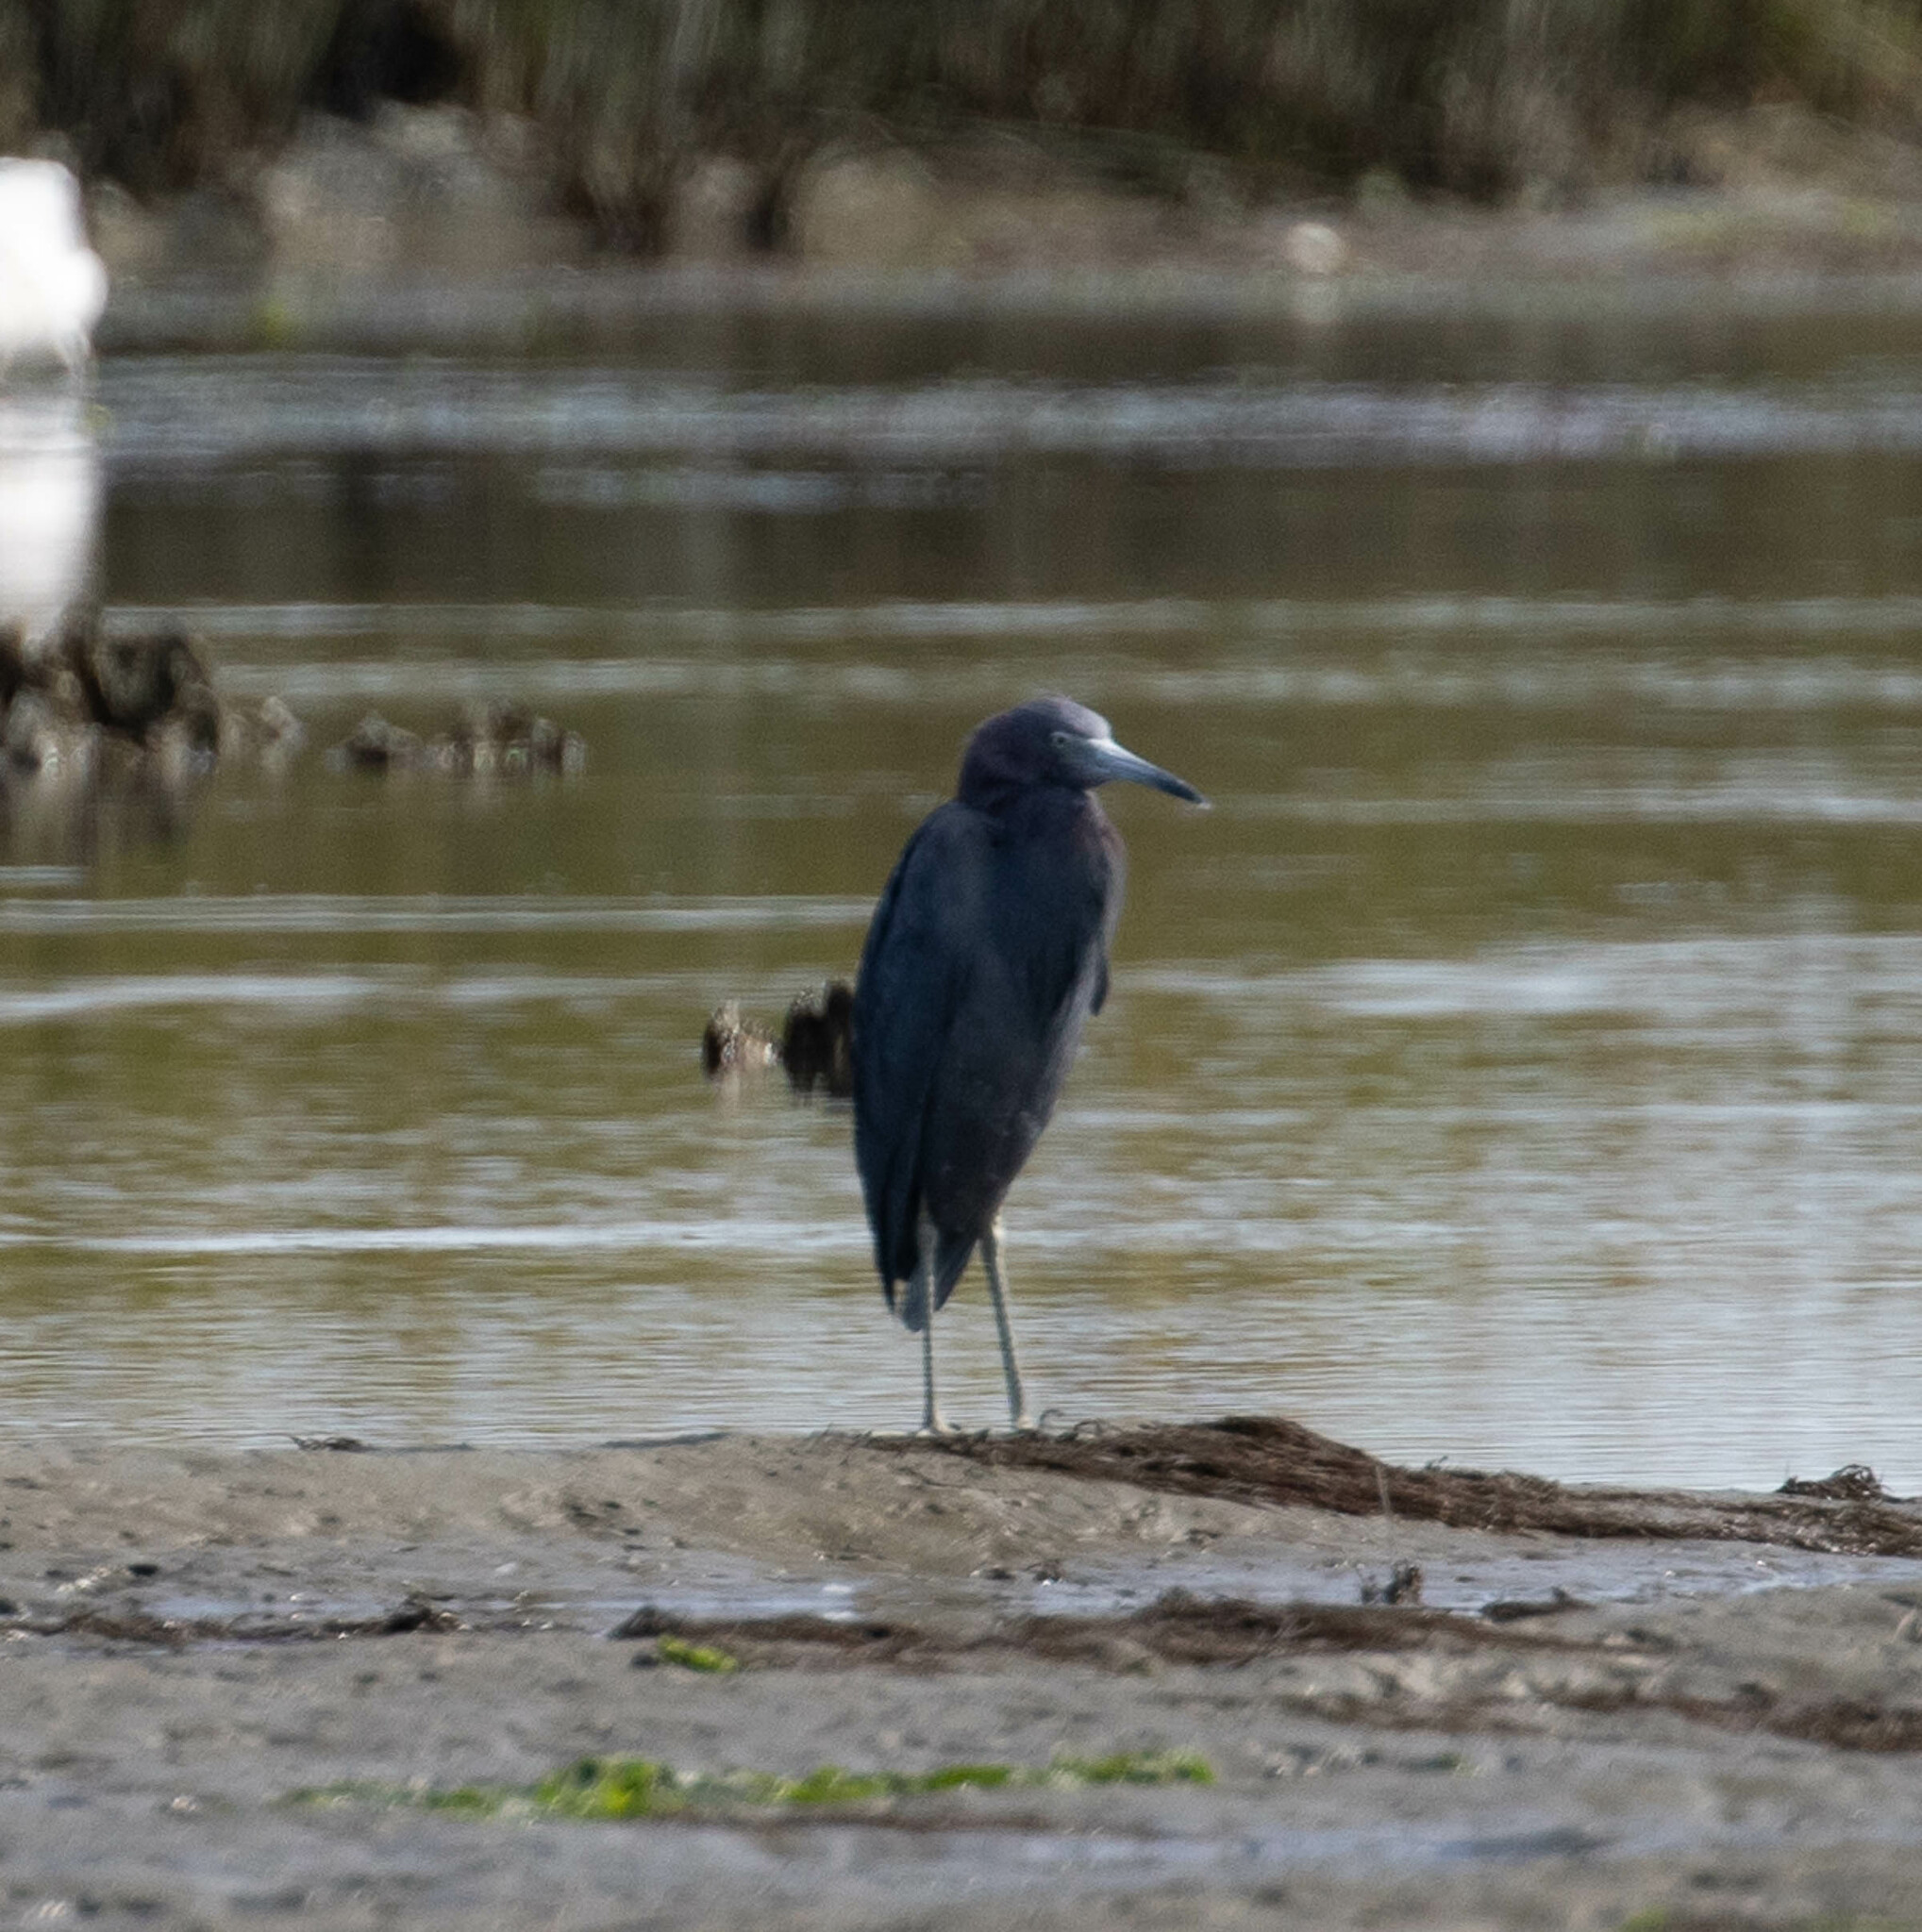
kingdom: Animalia
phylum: Chordata
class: Aves
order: Pelecaniformes
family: Ardeidae
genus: Egretta
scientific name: Egretta caerulea
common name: Little blue heron
